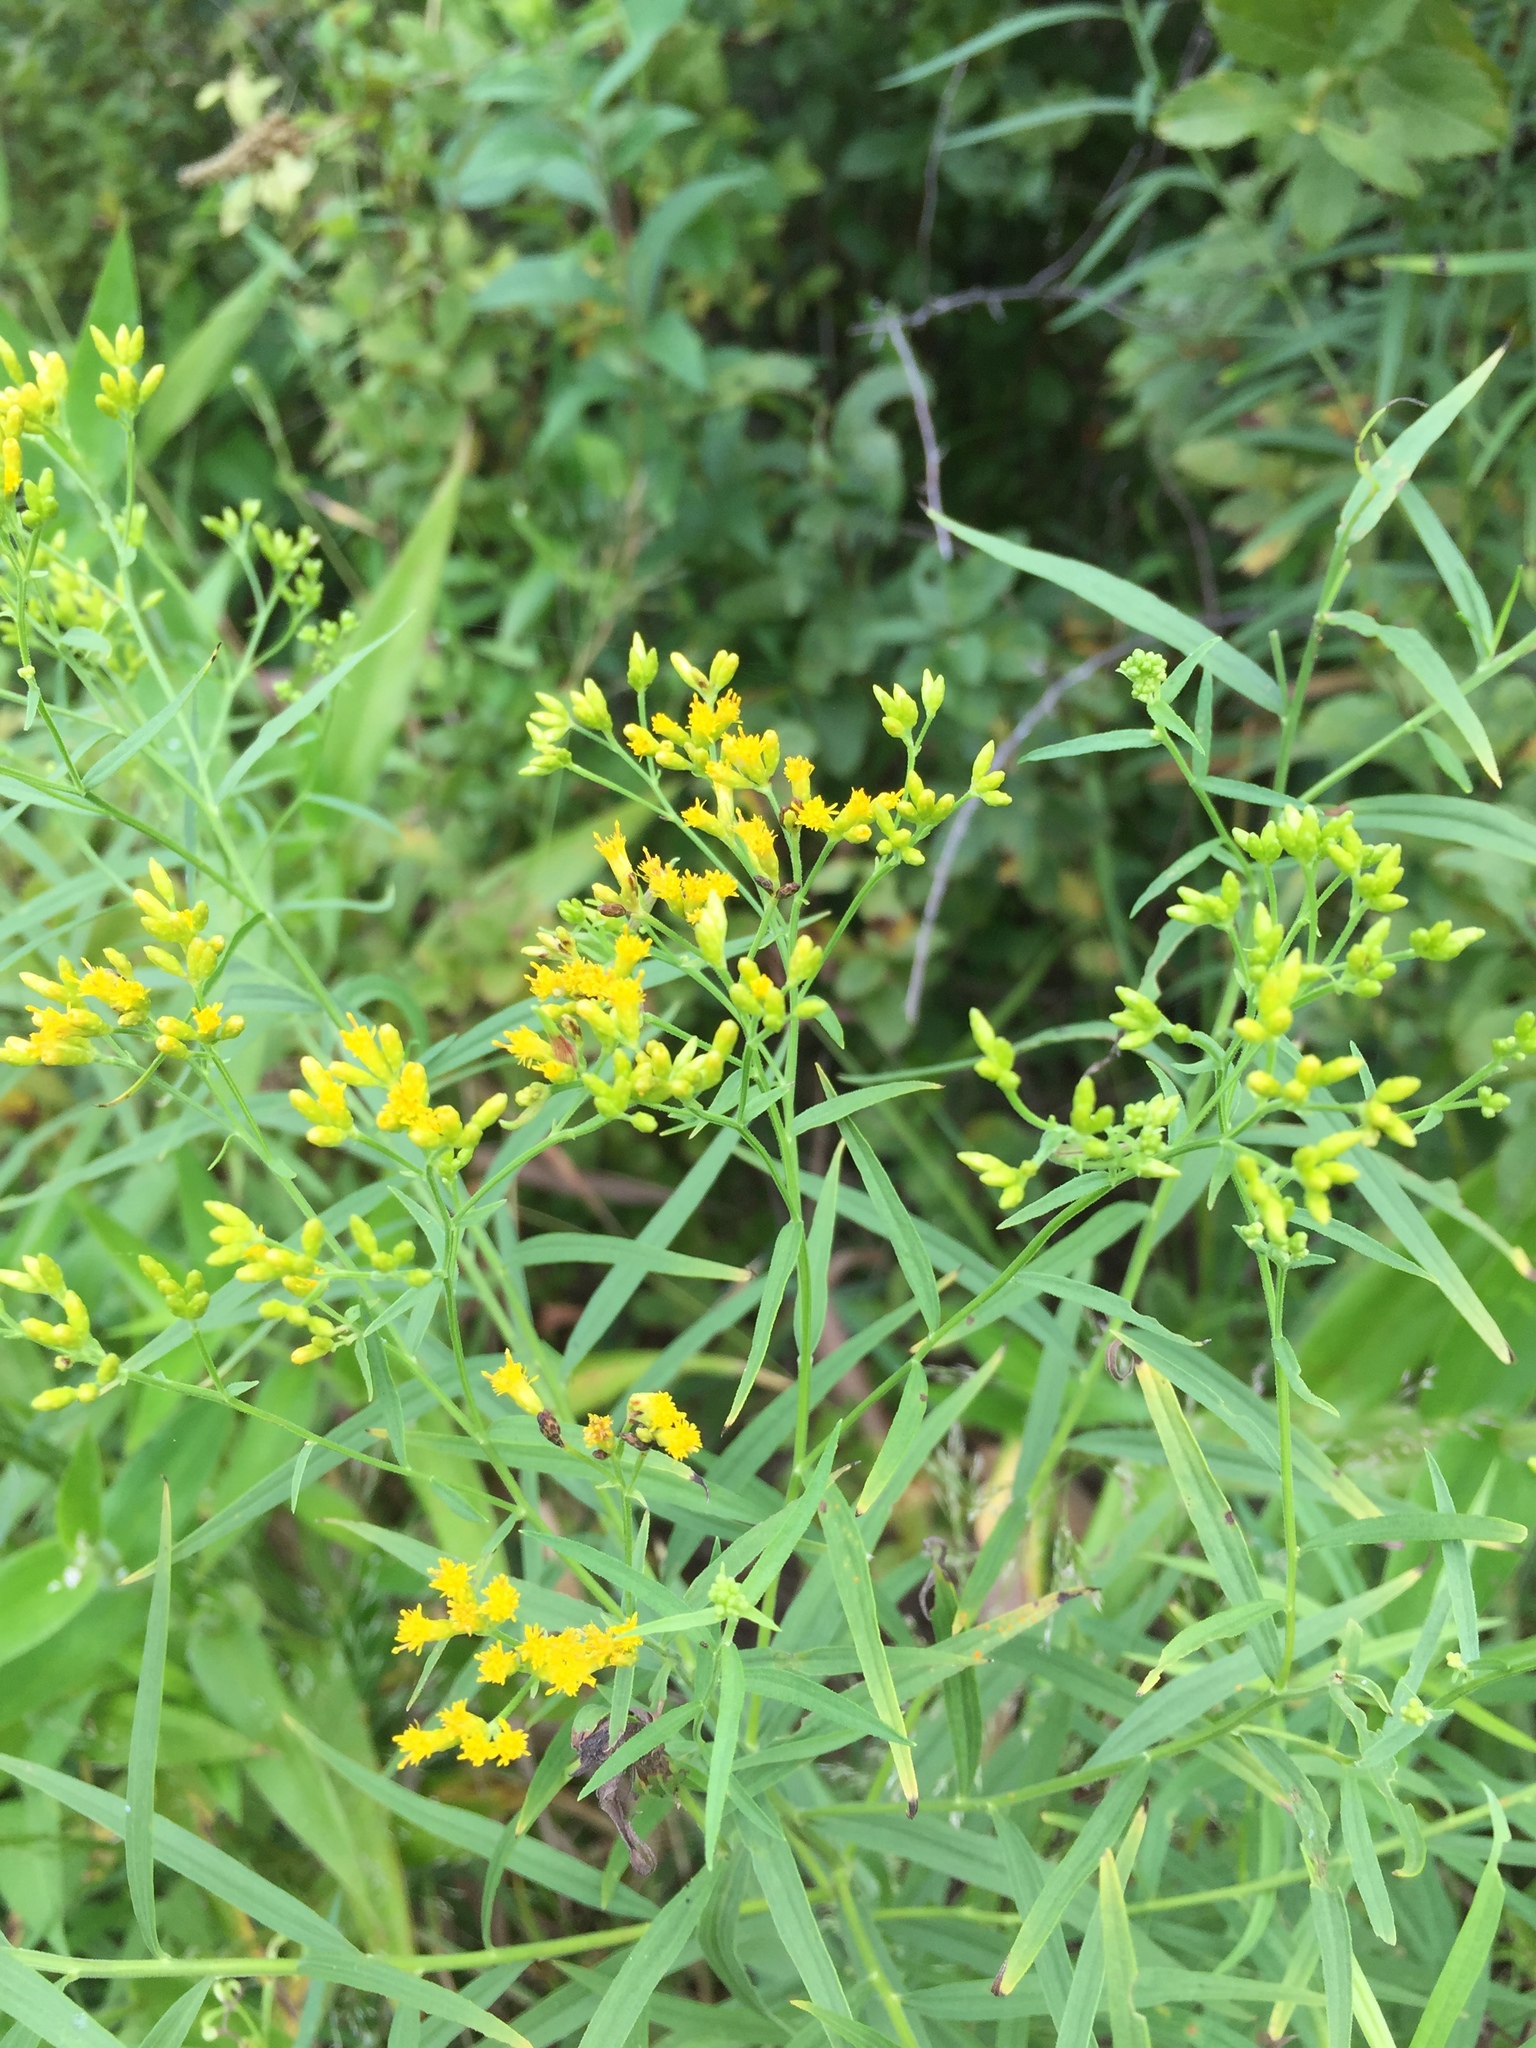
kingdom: Plantae
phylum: Tracheophyta
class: Magnoliopsida
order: Asterales
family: Asteraceae
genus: Euthamia
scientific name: Euthamia graminifolia
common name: Common goldentop
